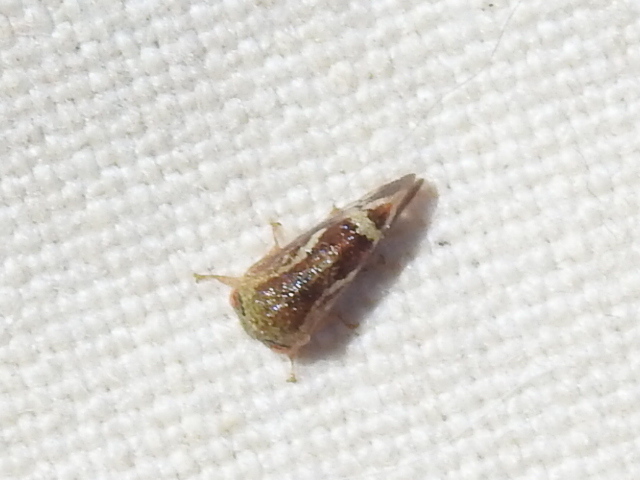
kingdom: Animalia
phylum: Arthropoda
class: Insecta
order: Hemiptera
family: Membracidae
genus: Ophiderma
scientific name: Ophiderma evelyna
